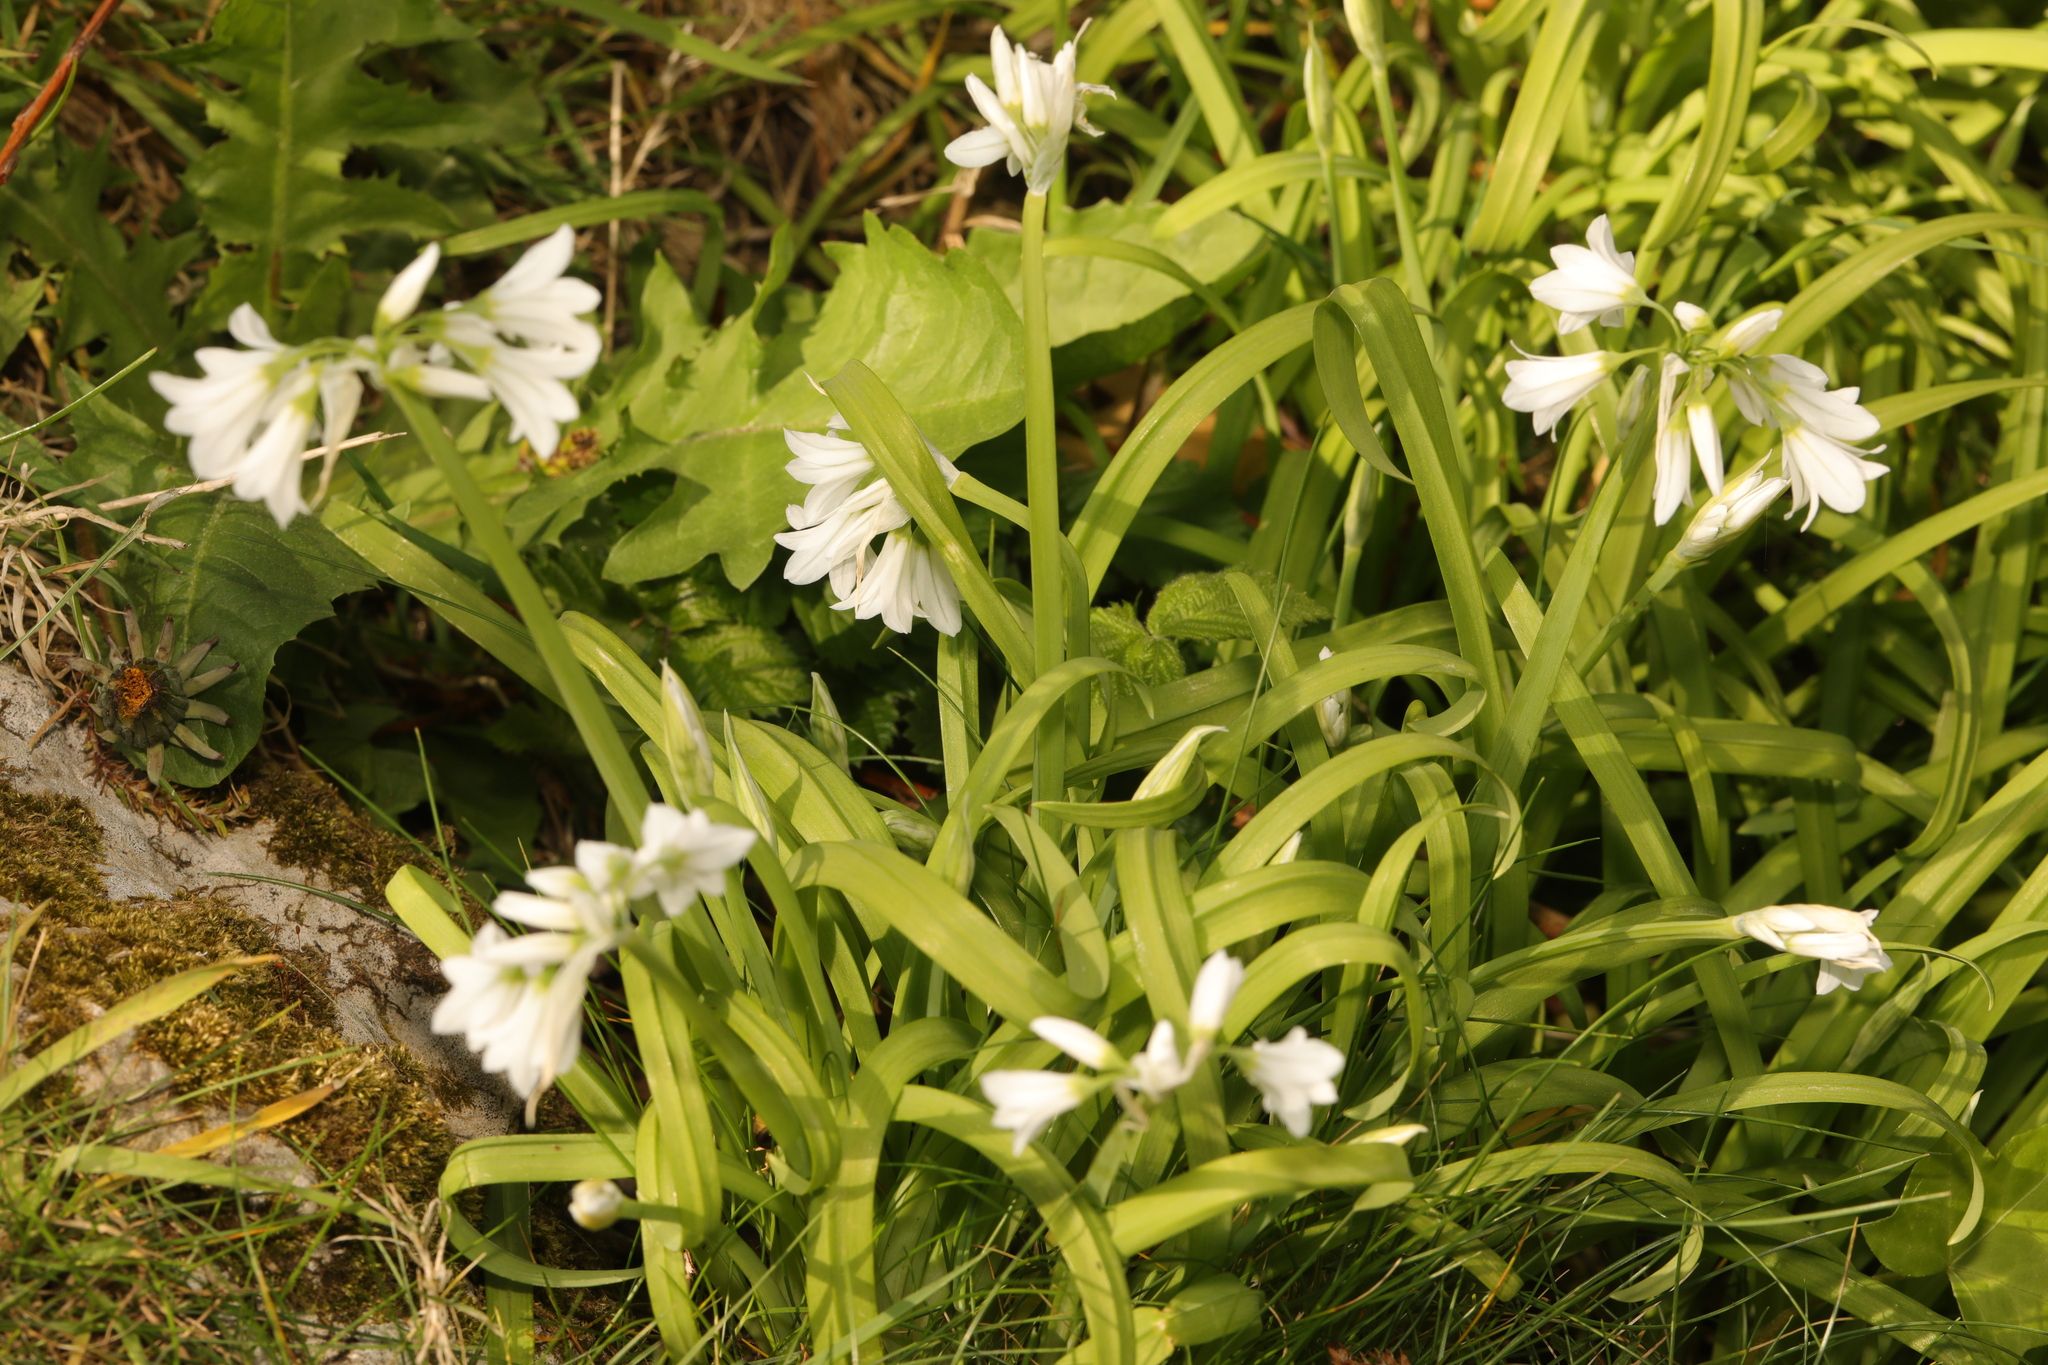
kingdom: Plantae
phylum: Tracheophyta
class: Liliopsida
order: Asparagales
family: Amaryllidaceae
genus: Allium
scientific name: Allium triquetrum
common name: Three-cornered garlic
